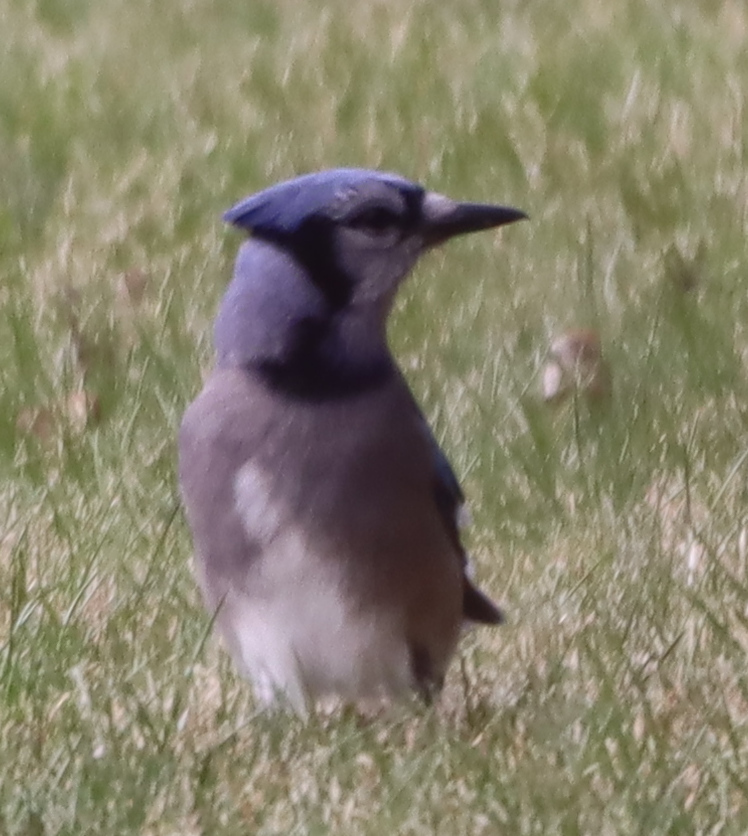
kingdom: Animalia
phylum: Chordata
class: Aves
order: Passeriformes
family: Corvidae
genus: Cyanocitta
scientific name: Cyanocitta cristata
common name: Blue jay
